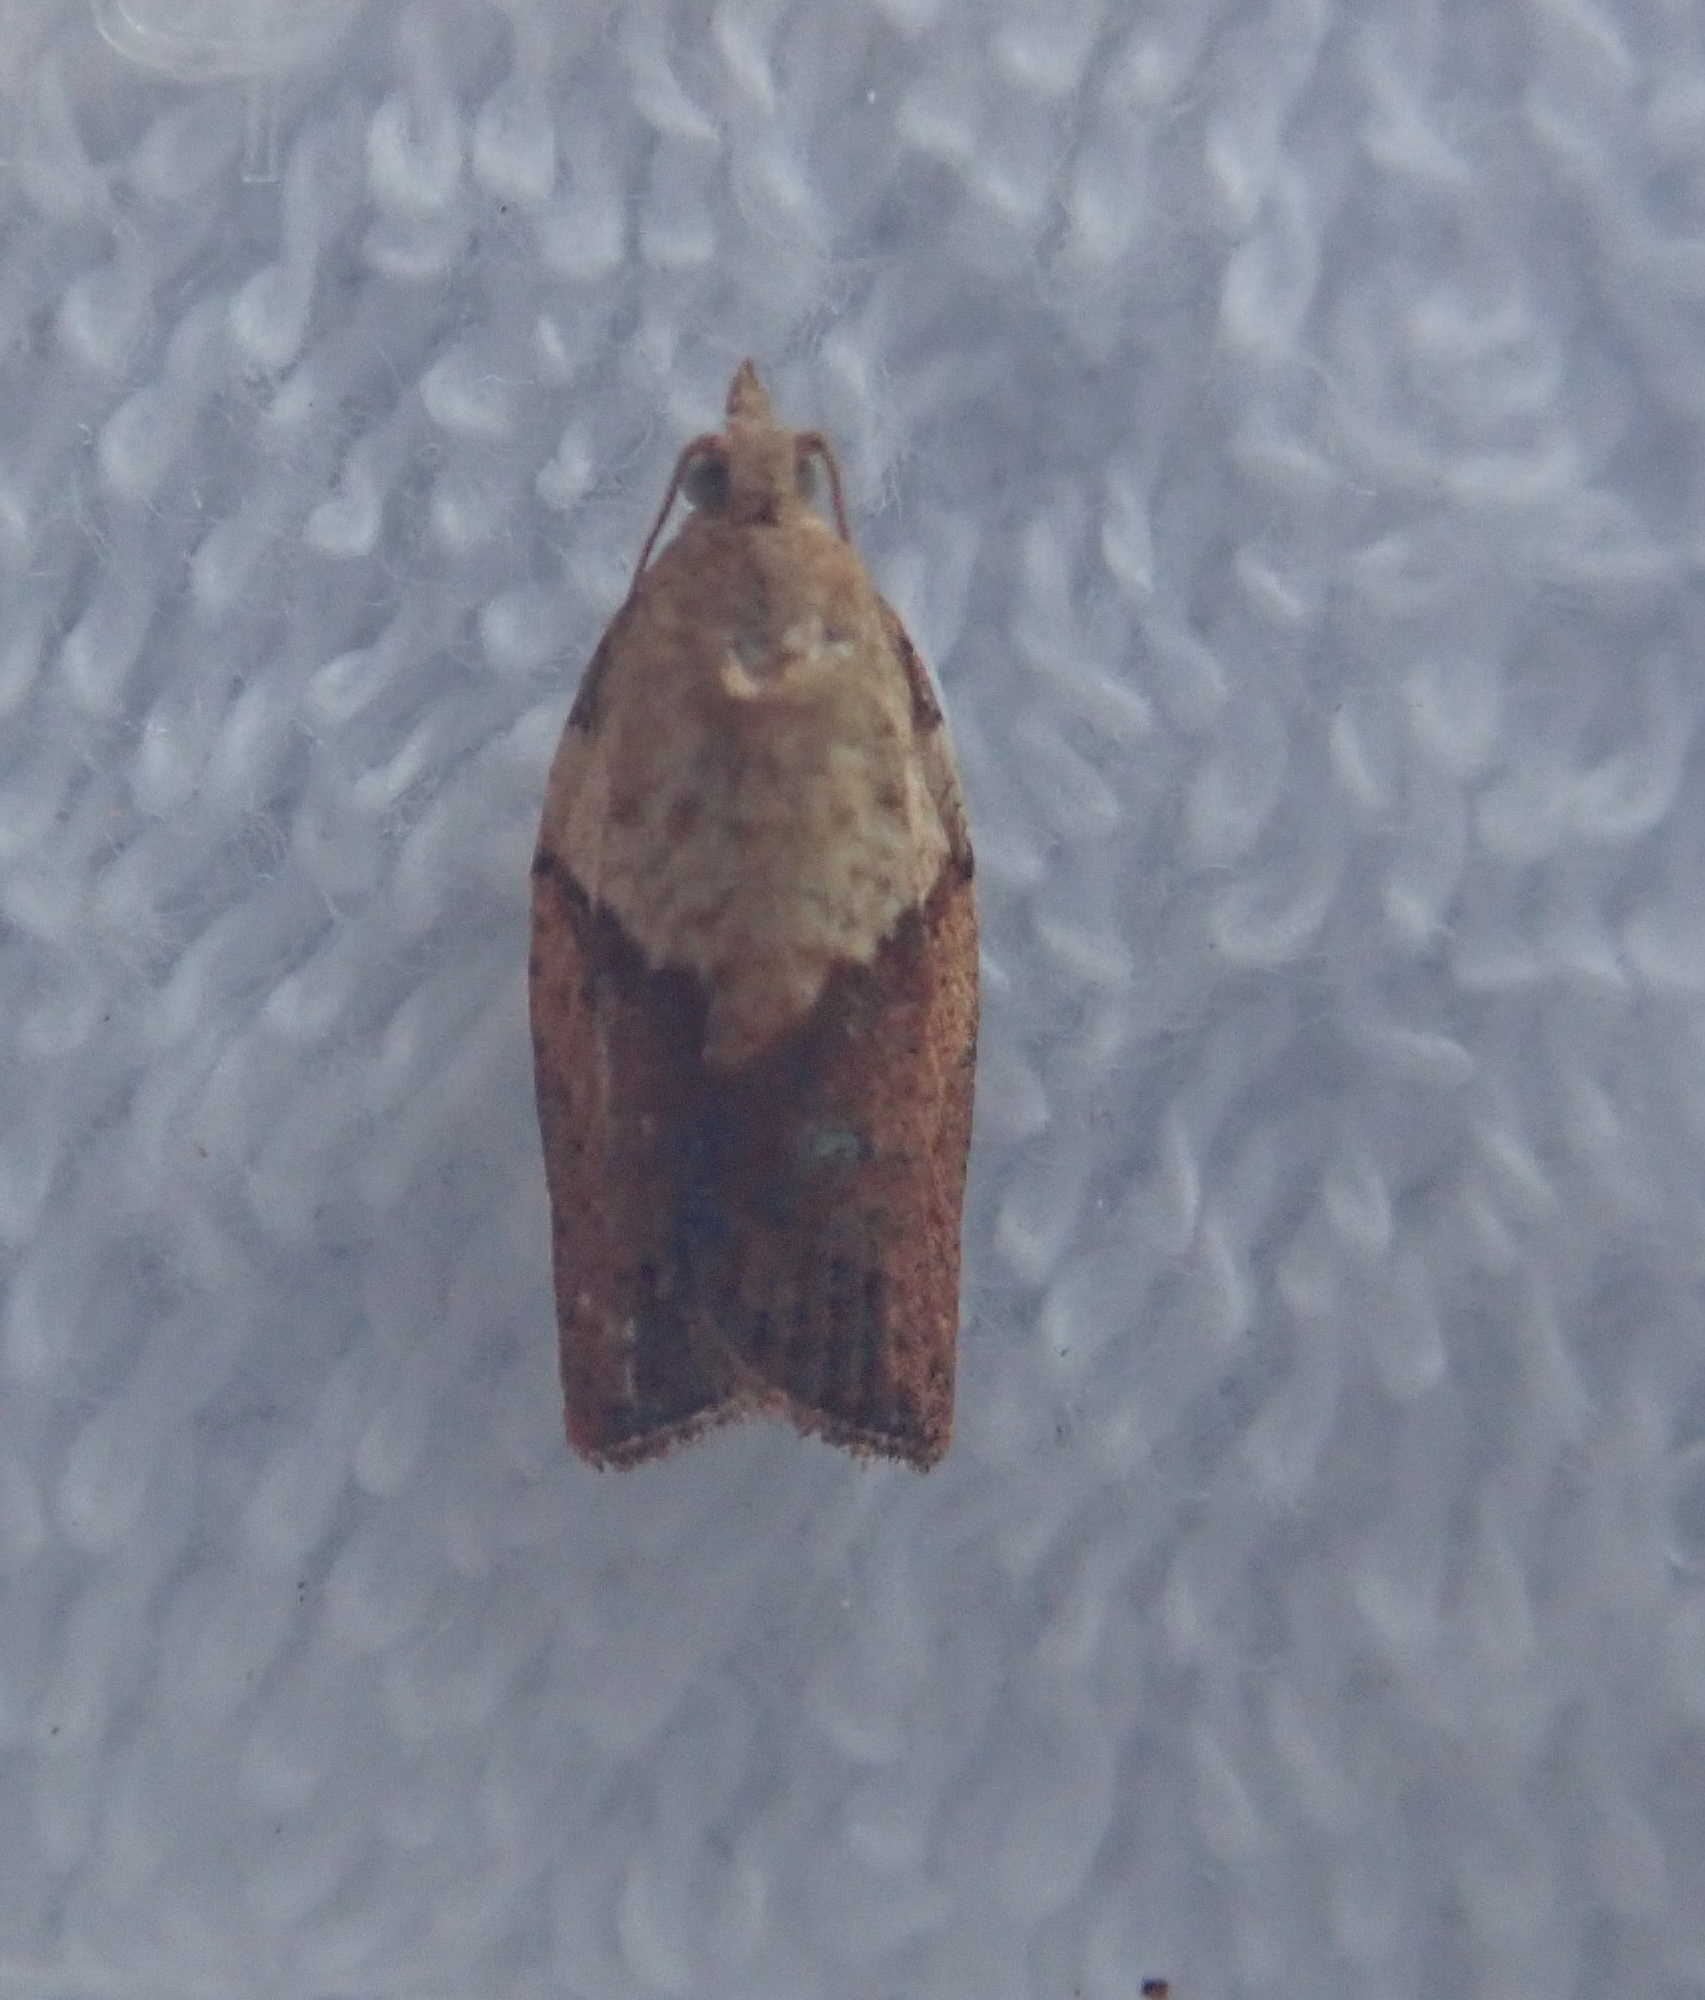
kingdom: Animalia
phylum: Arthropoda
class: Insecta
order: Lepidoptera
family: Tortricidae
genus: Epiphyas
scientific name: Epiphyas postvittana
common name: Light brown apple moth
